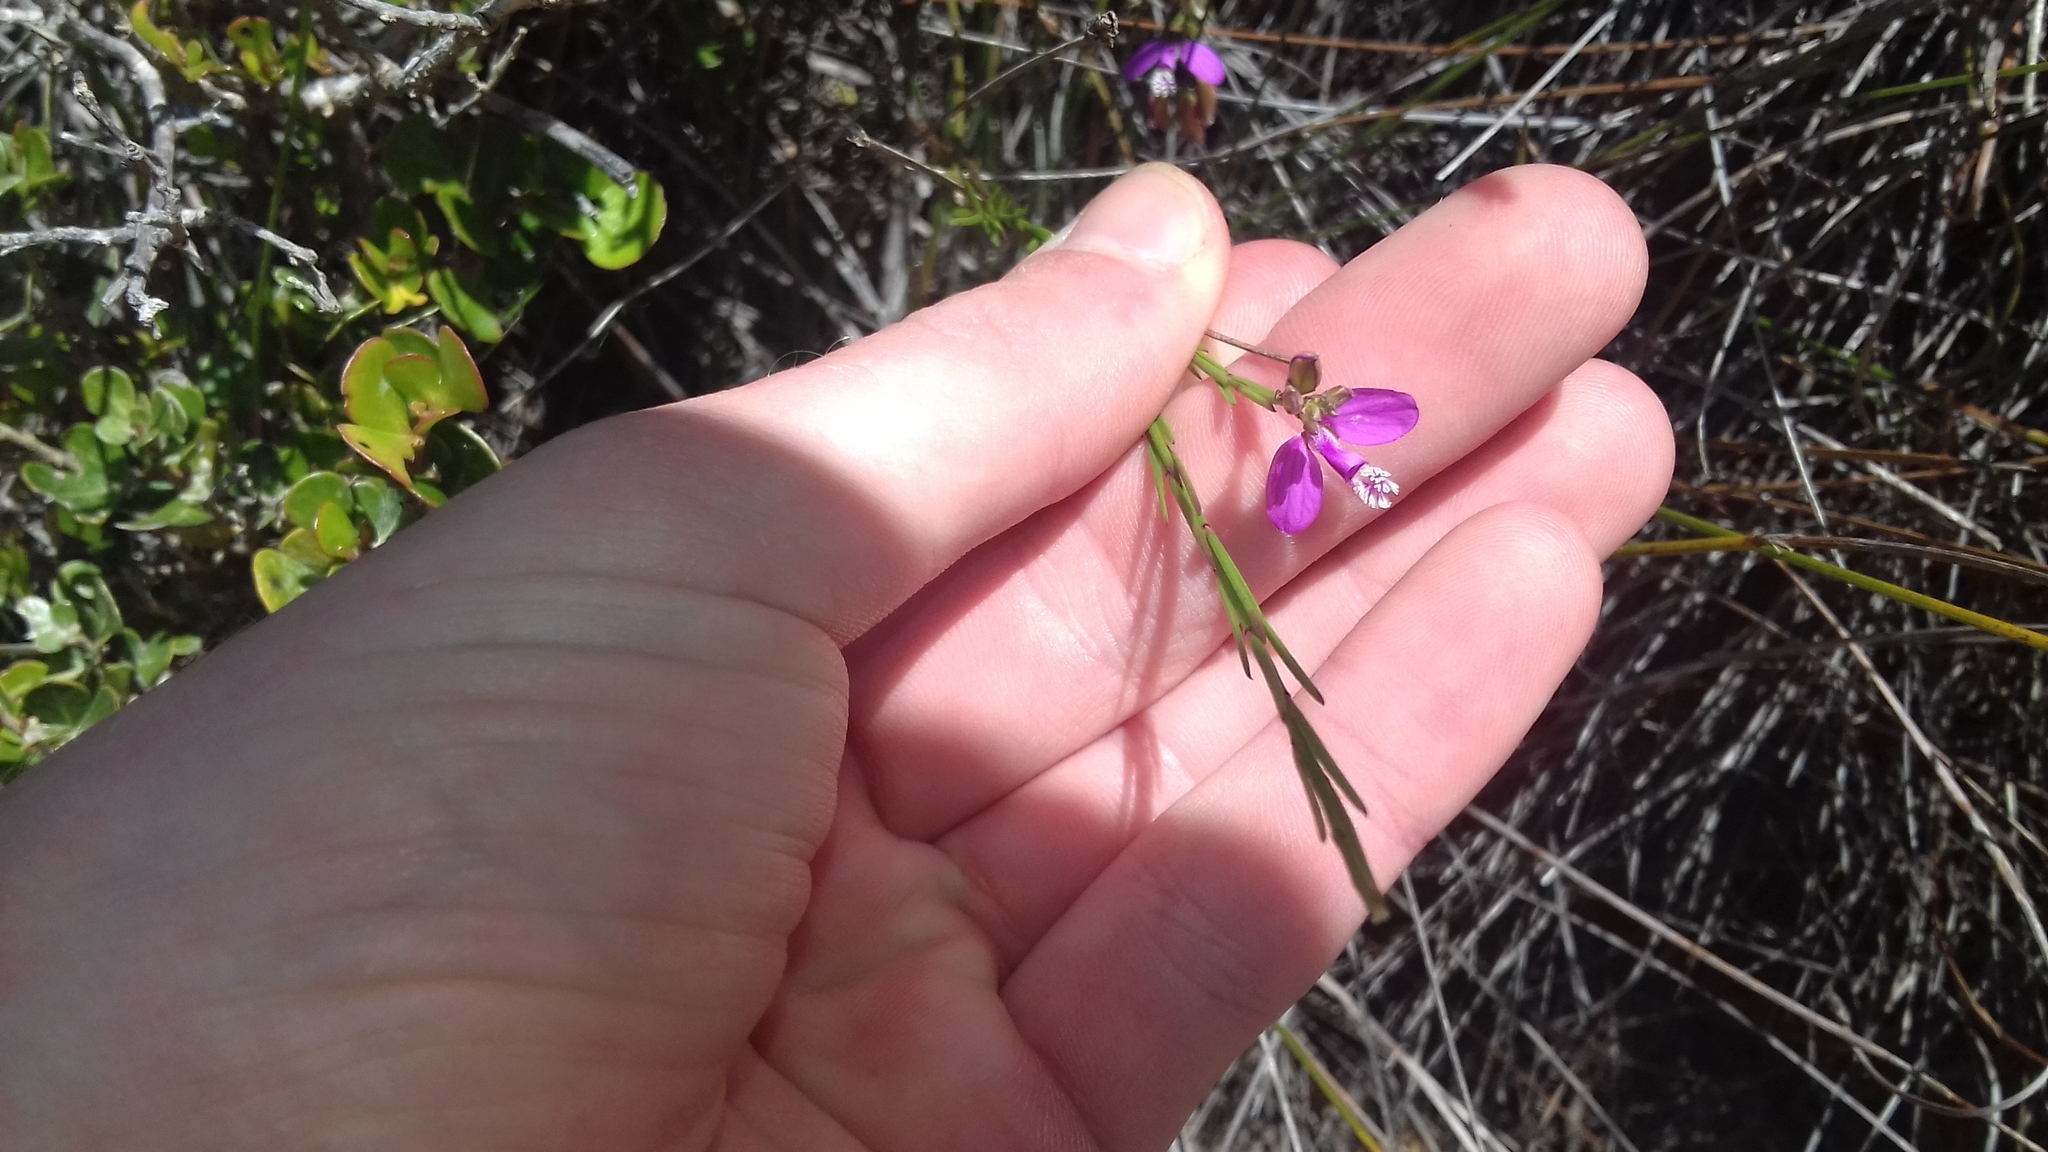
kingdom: Plantae
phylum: Tracheophyta
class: Magnoliopsida
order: Fabales
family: Polygalaceae
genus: Polygala
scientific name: Polygala garcini
